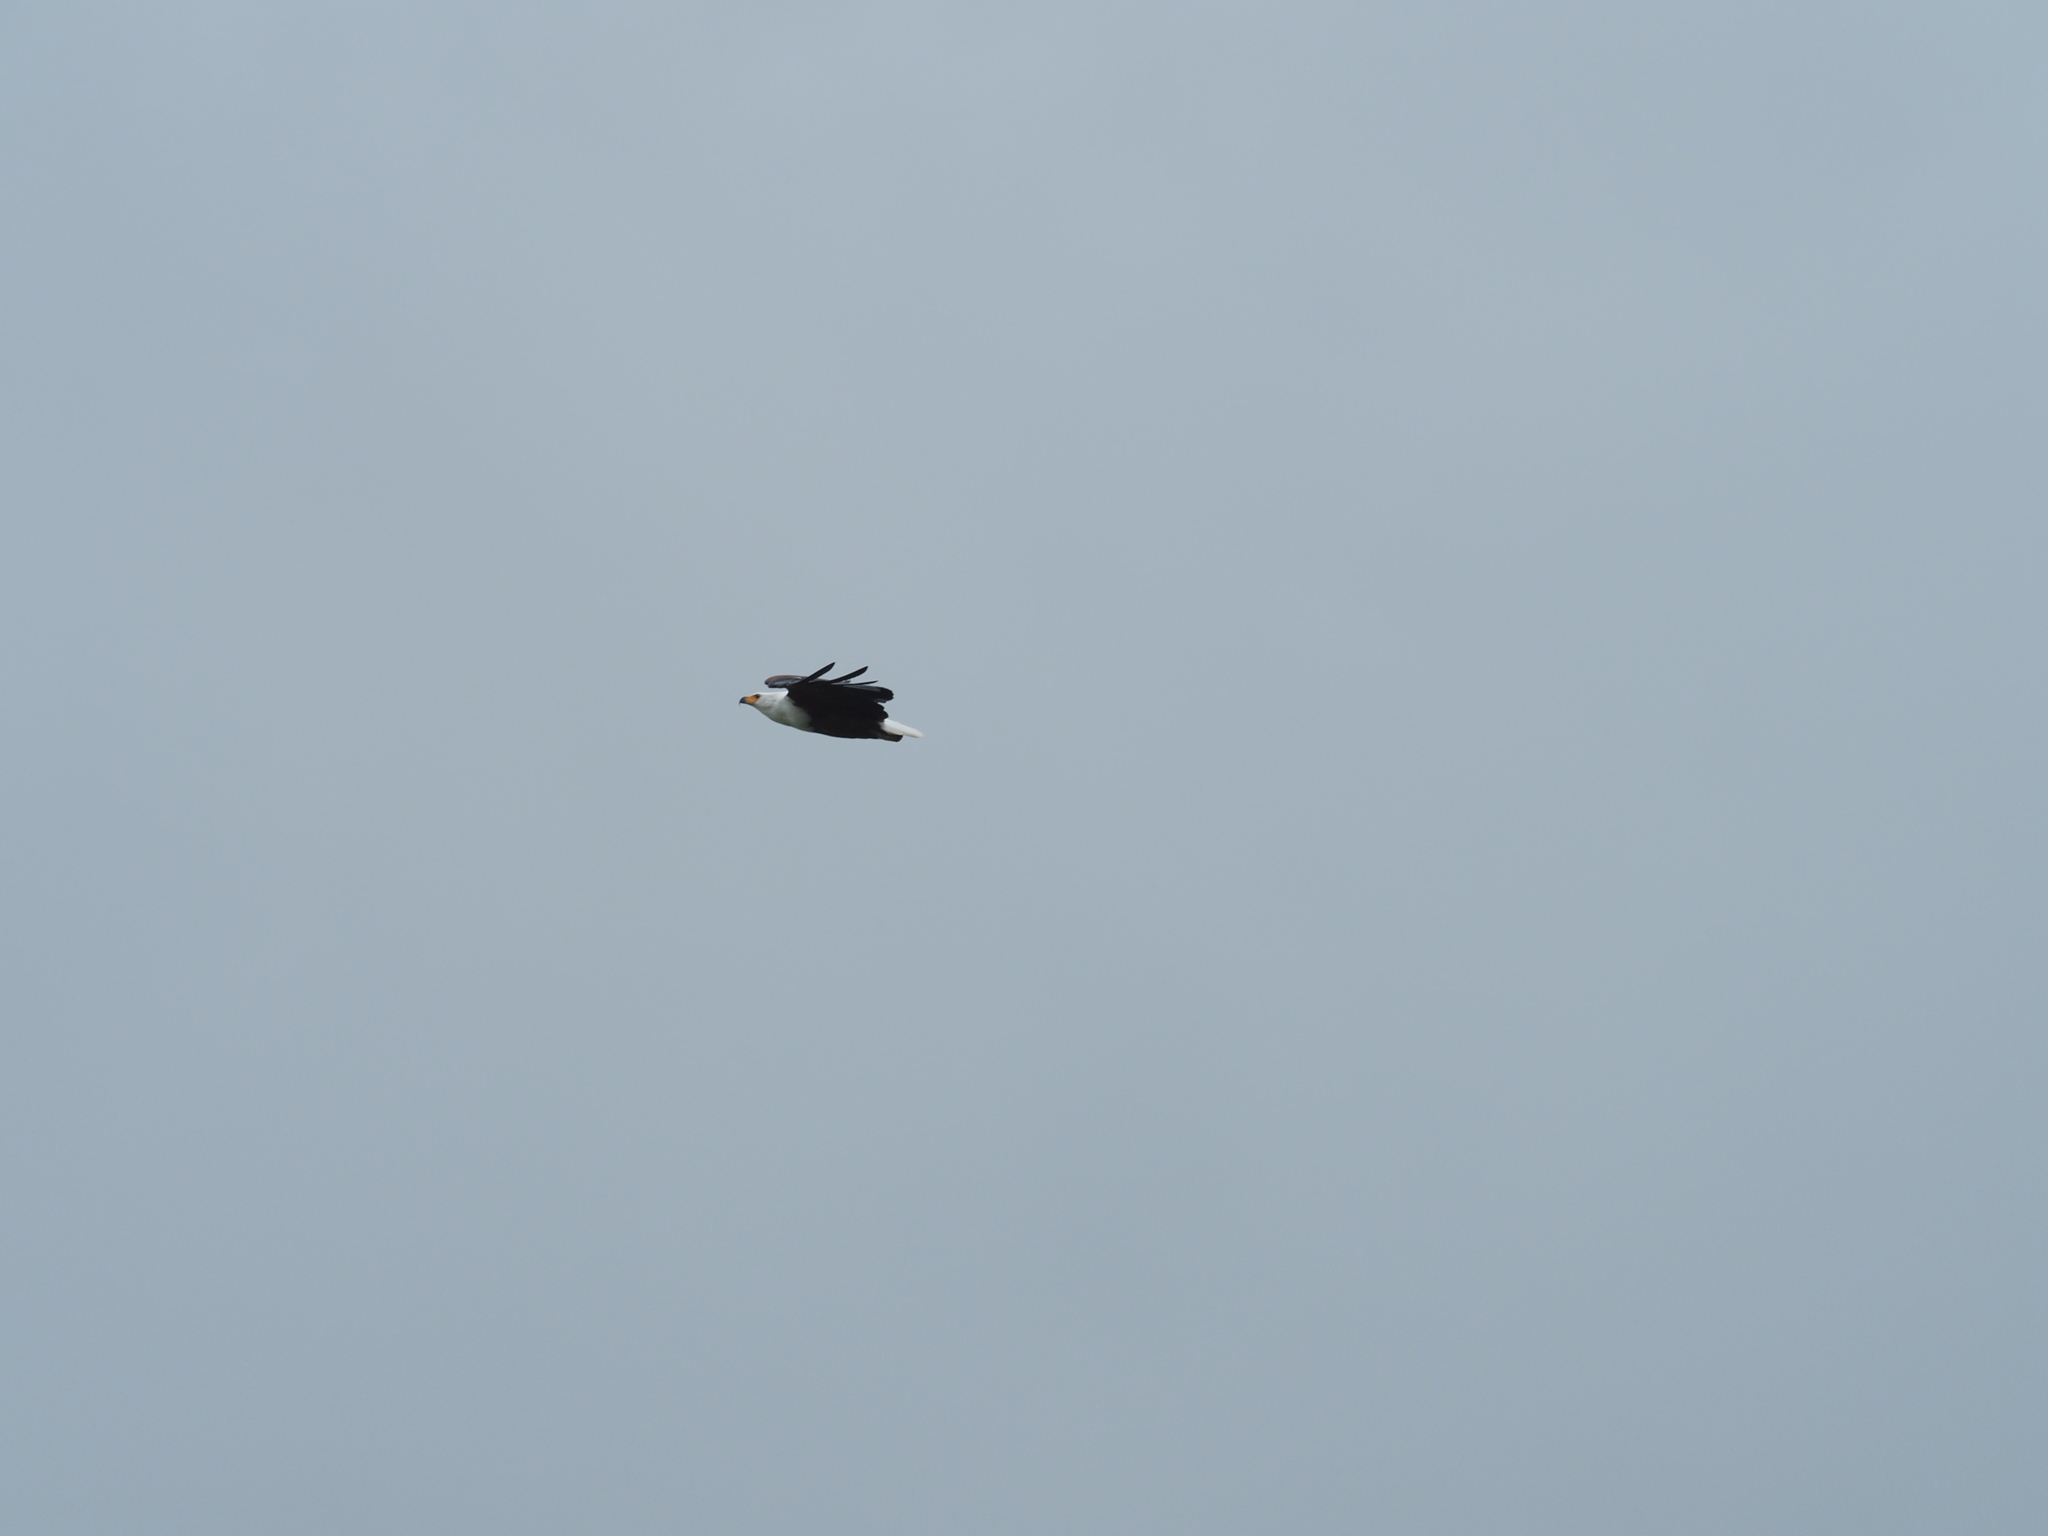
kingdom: Animalia
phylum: Chordata
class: Aves
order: Accipitriformes
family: Accipitridae
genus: Haliaeetus
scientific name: Haliaeetus vocifer
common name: African fish eagle
